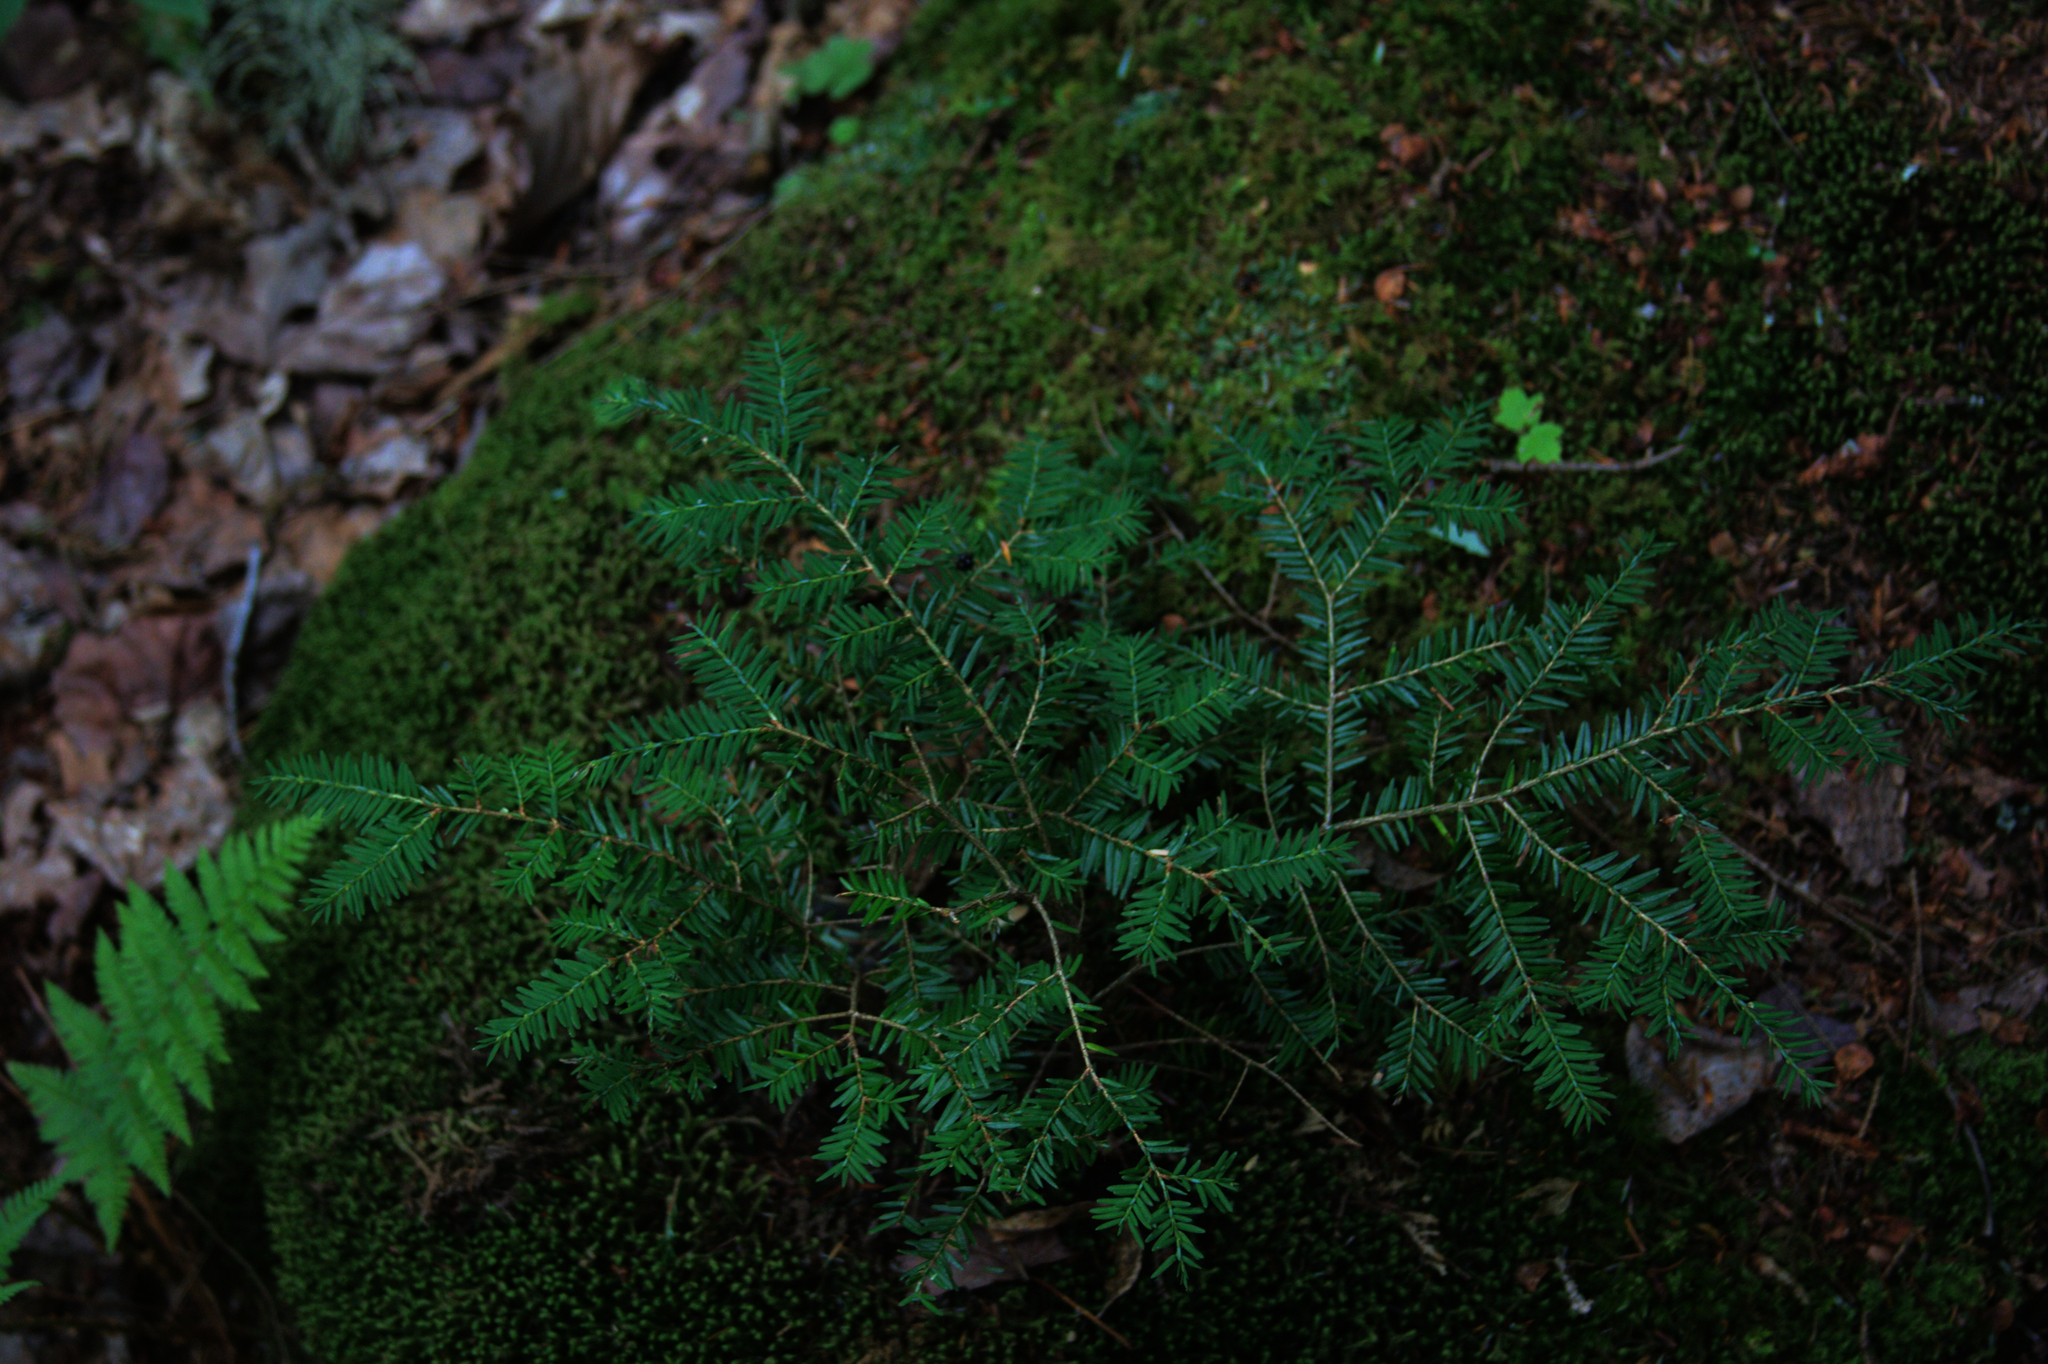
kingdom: Plantae
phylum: Tracheophyta
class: Pinopsida
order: Pinales
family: Pinaceae
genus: Tsuga
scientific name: Tsuga canadensis
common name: Eastern hemlock
